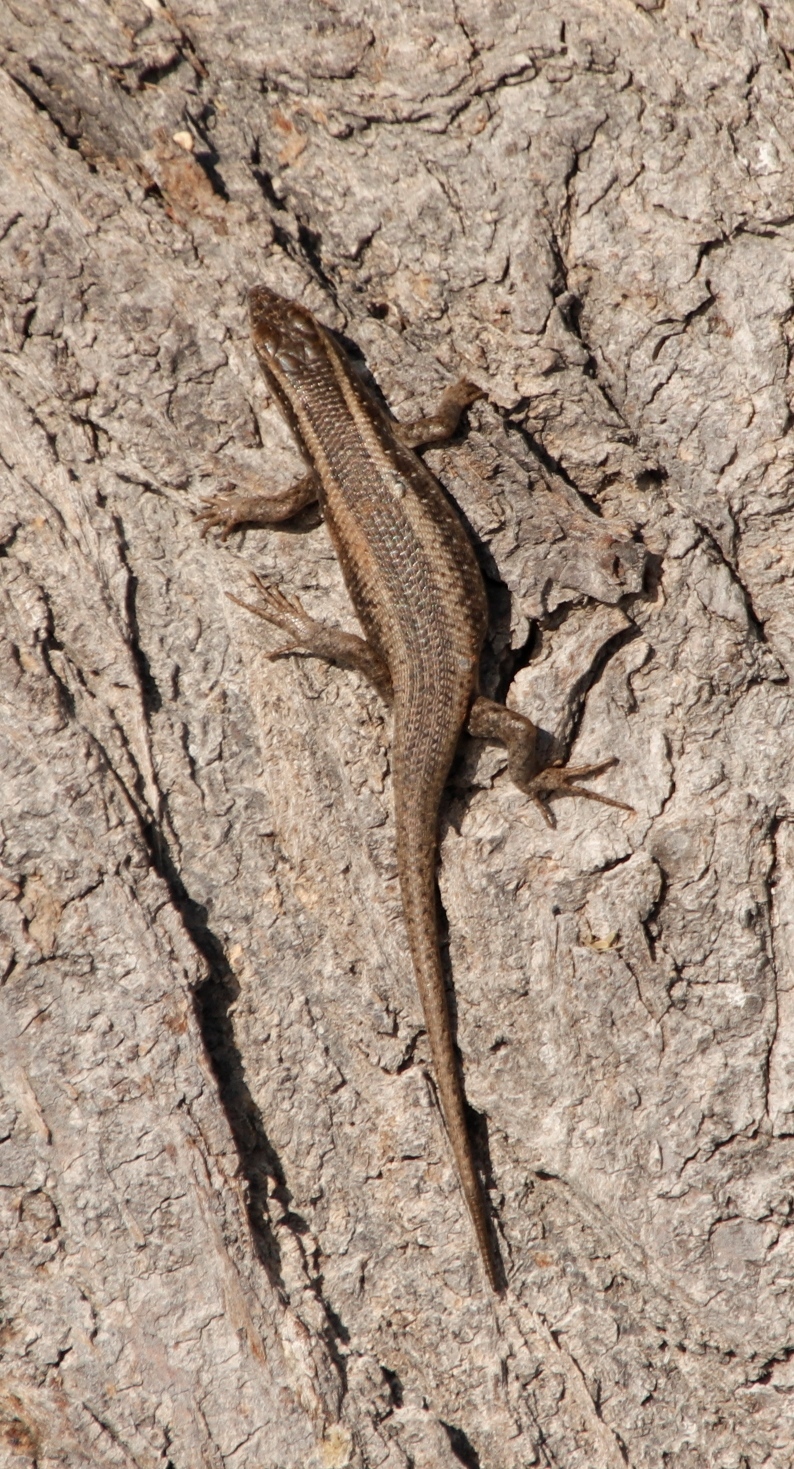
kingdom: Animalia
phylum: Chordata
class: Squamata
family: Scincidae
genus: Trachylepis
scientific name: Trachylepis spilogaster
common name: Kalahari tree skink
